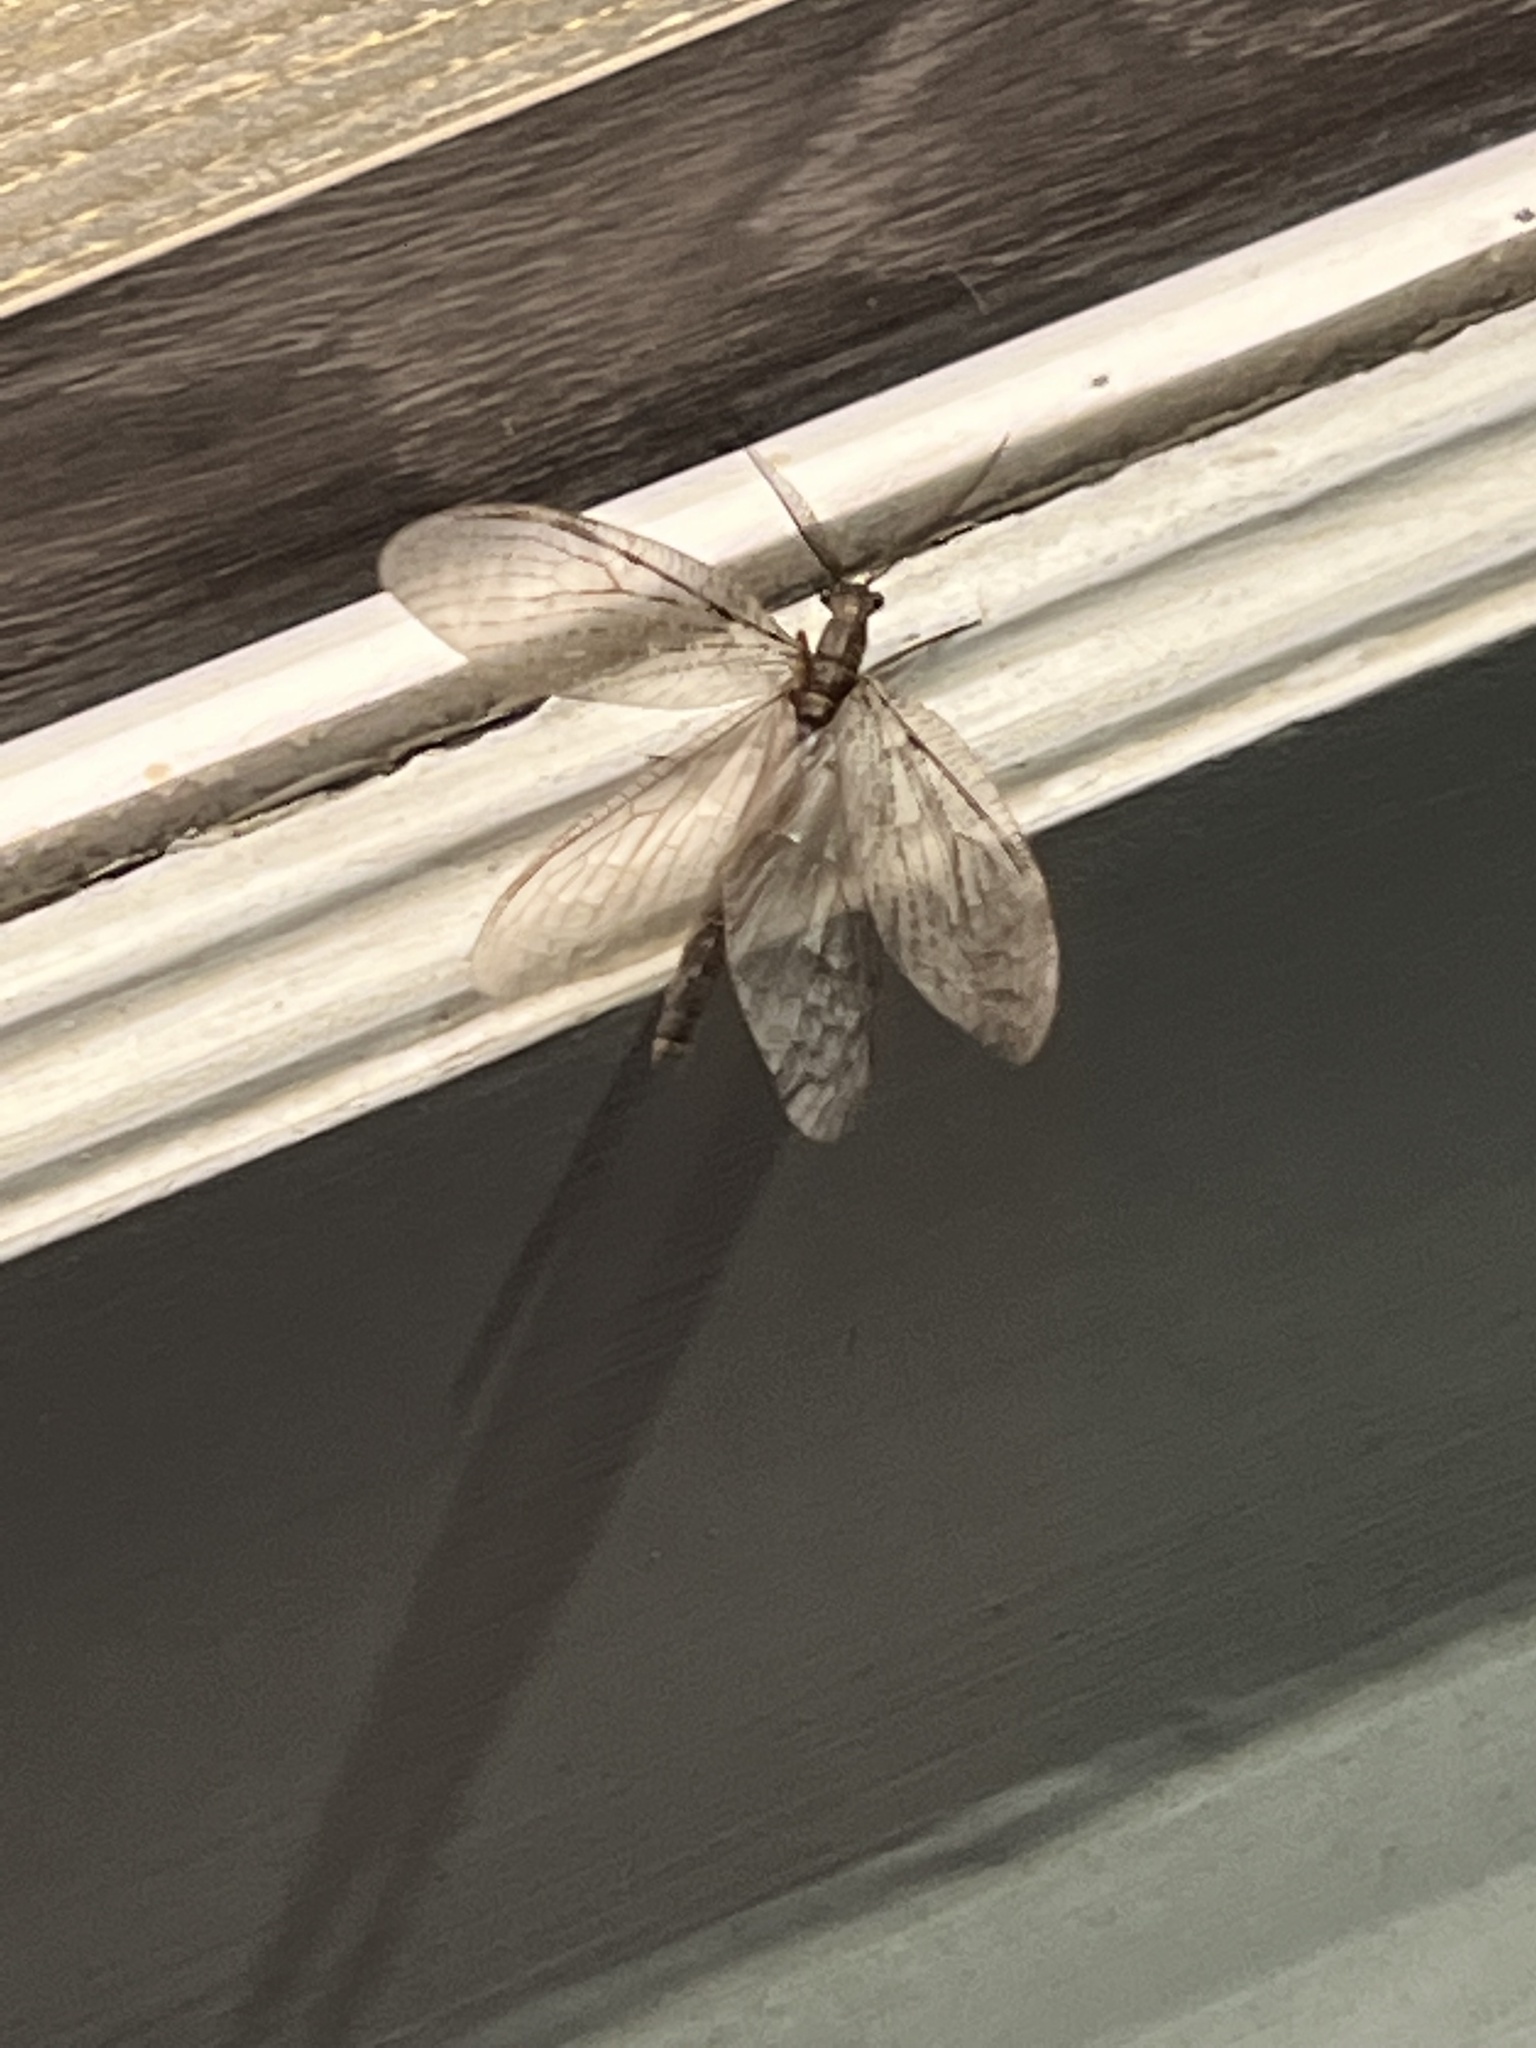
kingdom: Animalia
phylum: Arthropoda
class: Insecta
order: Megaloptera
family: Corydalidae
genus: Chauliodes
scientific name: Chauliodes pectinicornis
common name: Summer fishfly
